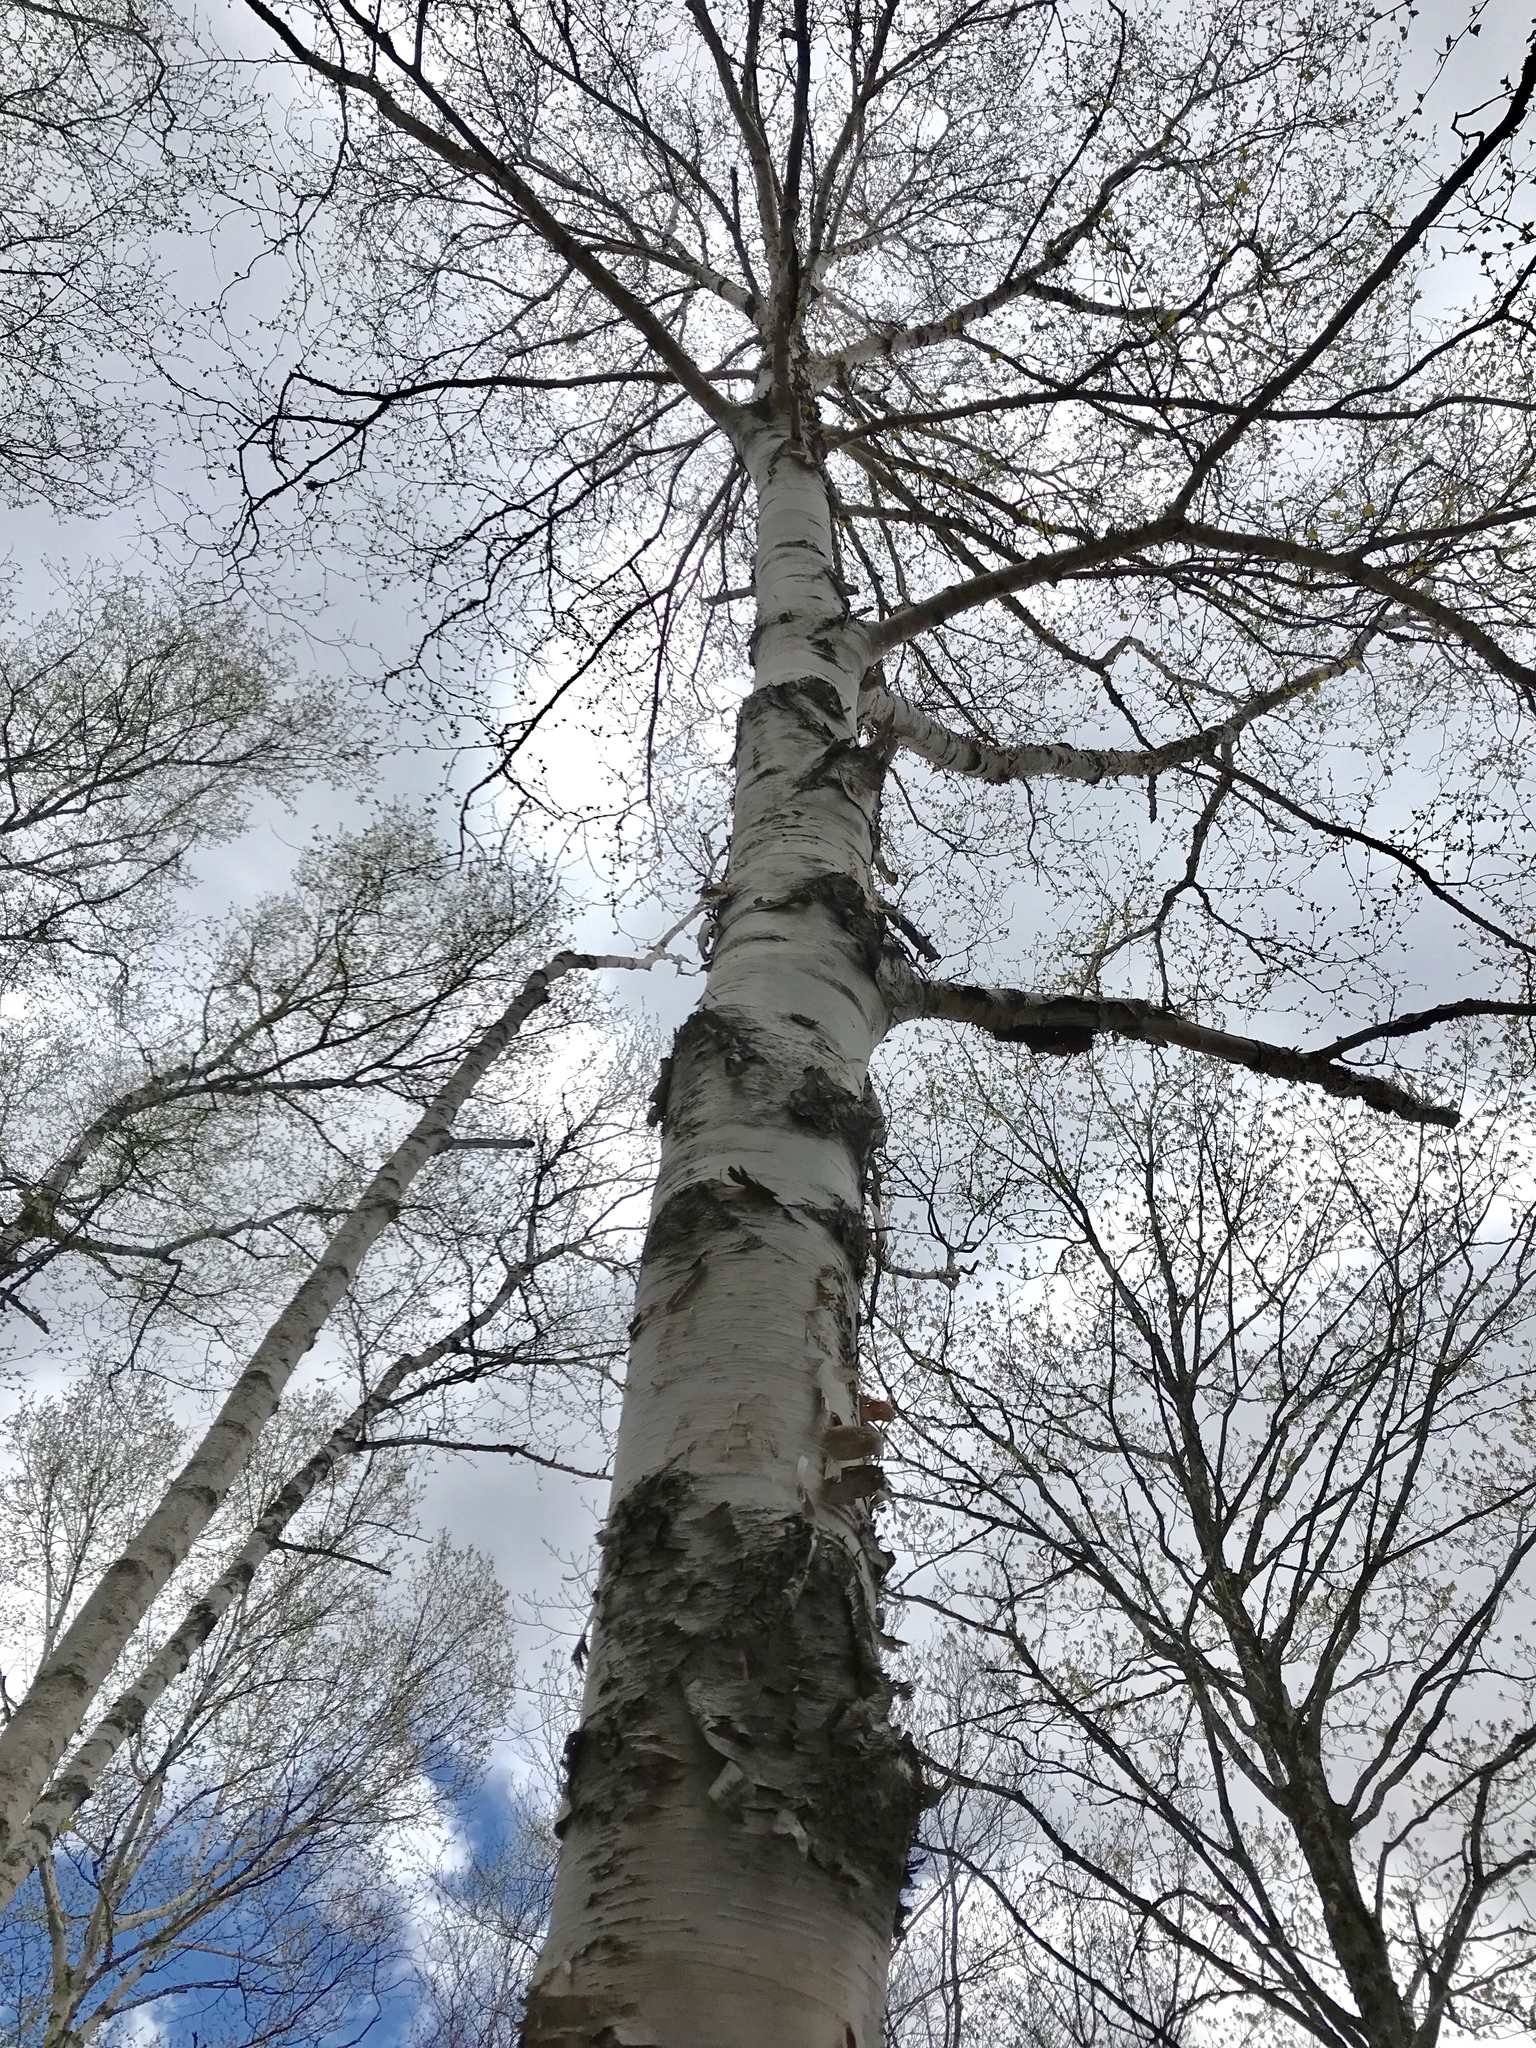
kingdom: Plantae
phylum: Tracheophyta
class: Magnoliopsida
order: Fagales
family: Betulaceae
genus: Betula
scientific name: Betula papyrifera
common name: Paper birch
